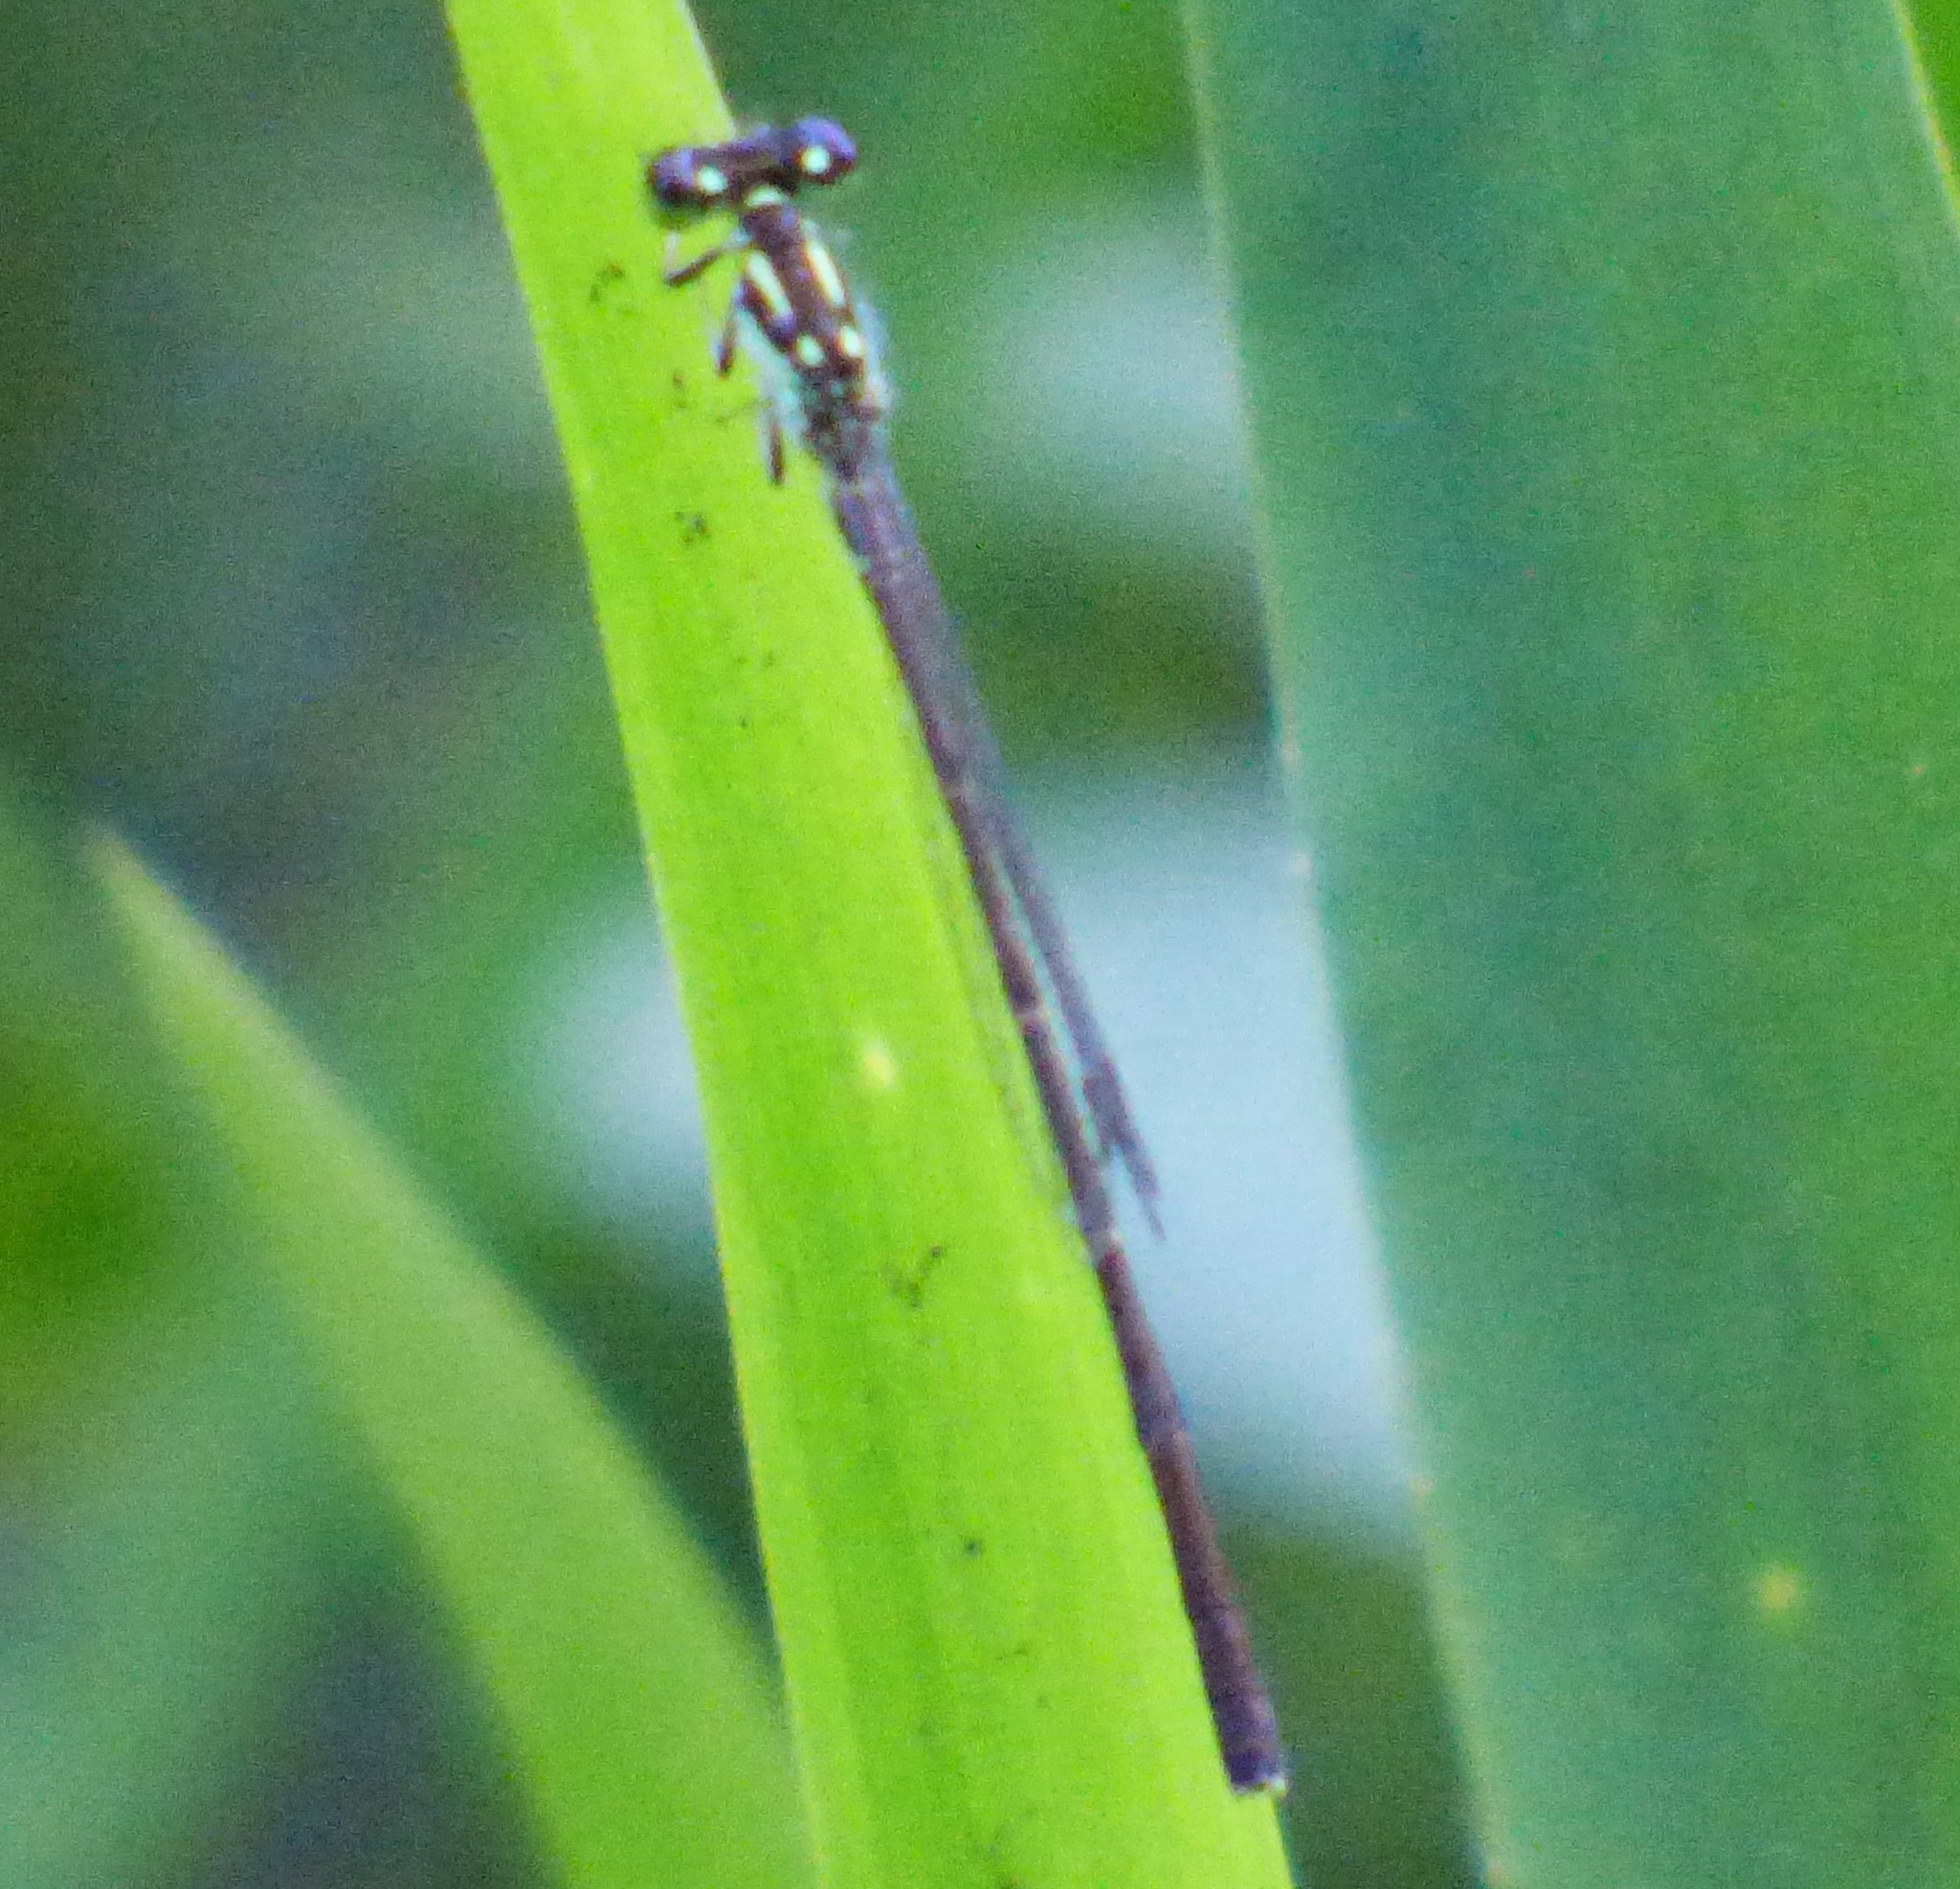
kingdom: Animalia
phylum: Arthropoda
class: Insecta
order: Odonata
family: Coenagrionidae
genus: Ischnura
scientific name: Ischnura posita
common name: Fragile forktail
